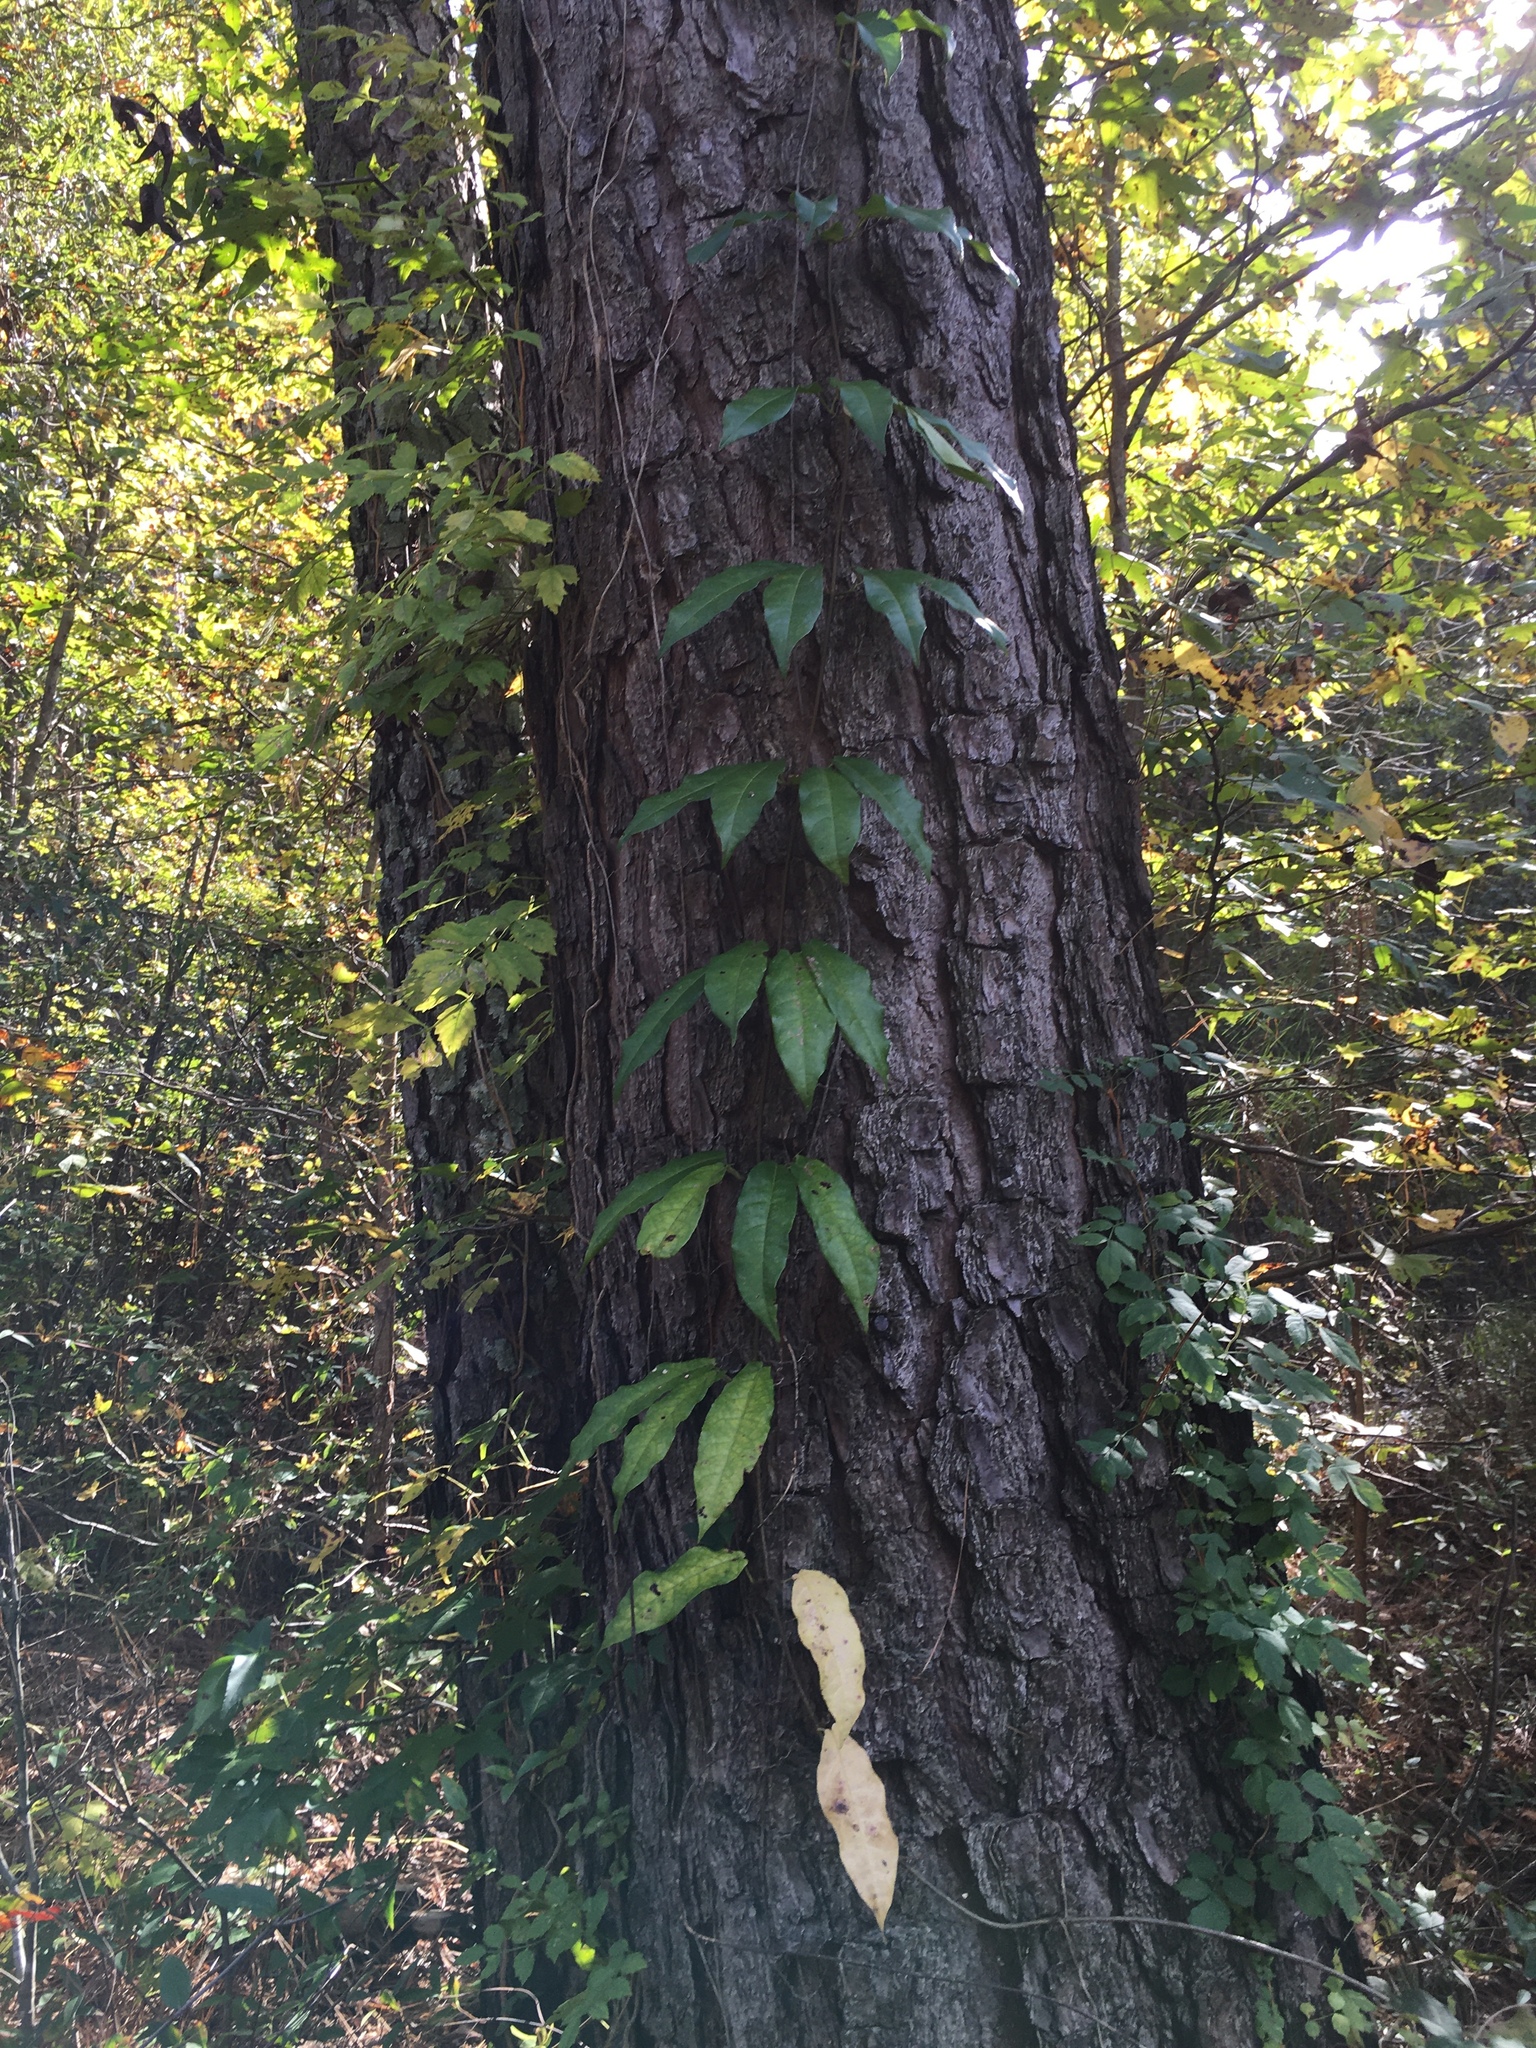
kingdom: Plantae
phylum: Tracheophyta
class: Magnoliopsida
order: Lamiales
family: Bignoniaceae
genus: Bignonia
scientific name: Bignonia capreolata
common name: Crossvine
